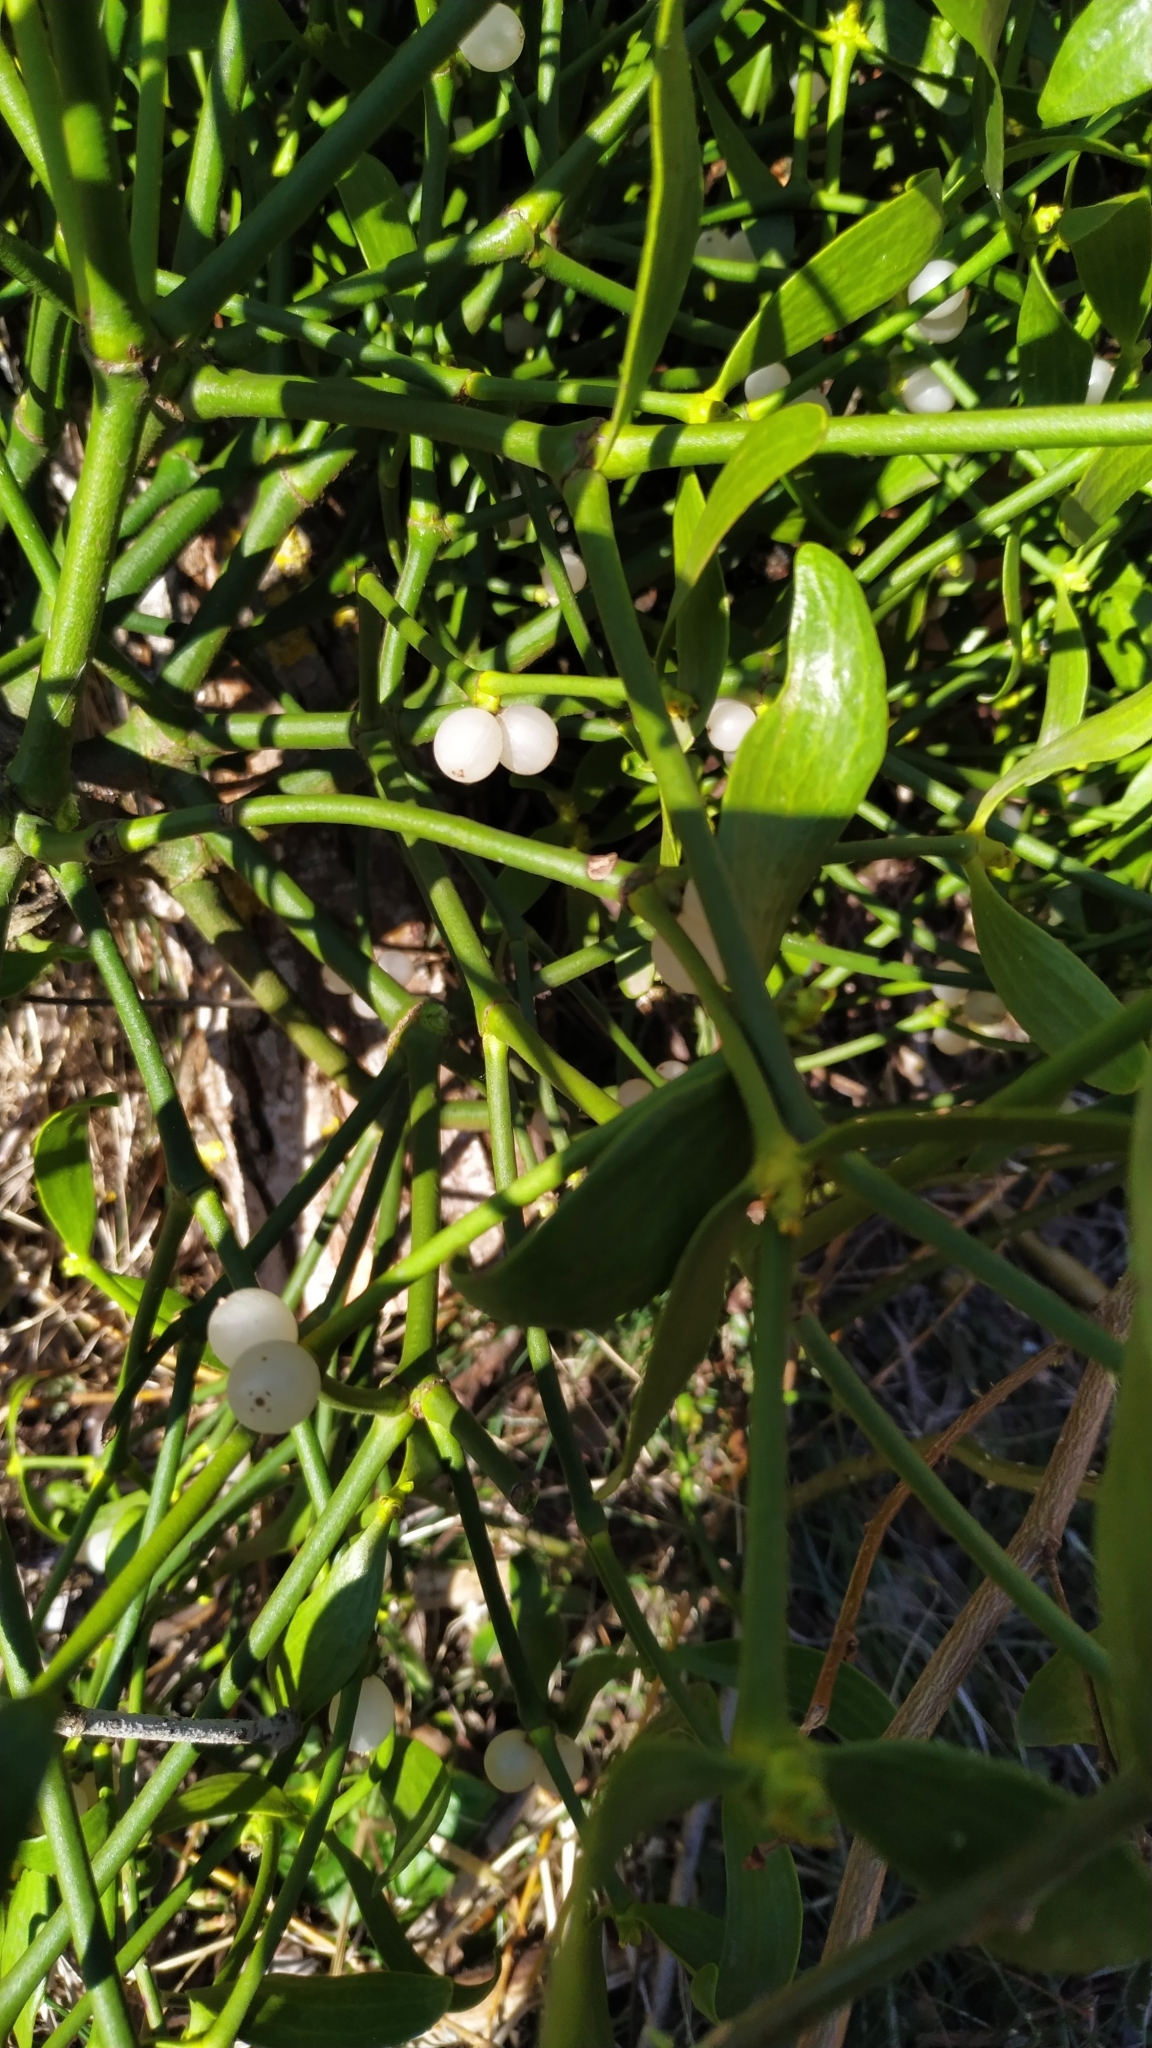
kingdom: Plantae
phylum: Tracheophyta
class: Magnoliopsida
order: Santalales
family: Viscaceae
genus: Viscum
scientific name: Viscum album
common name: Mistletoe
